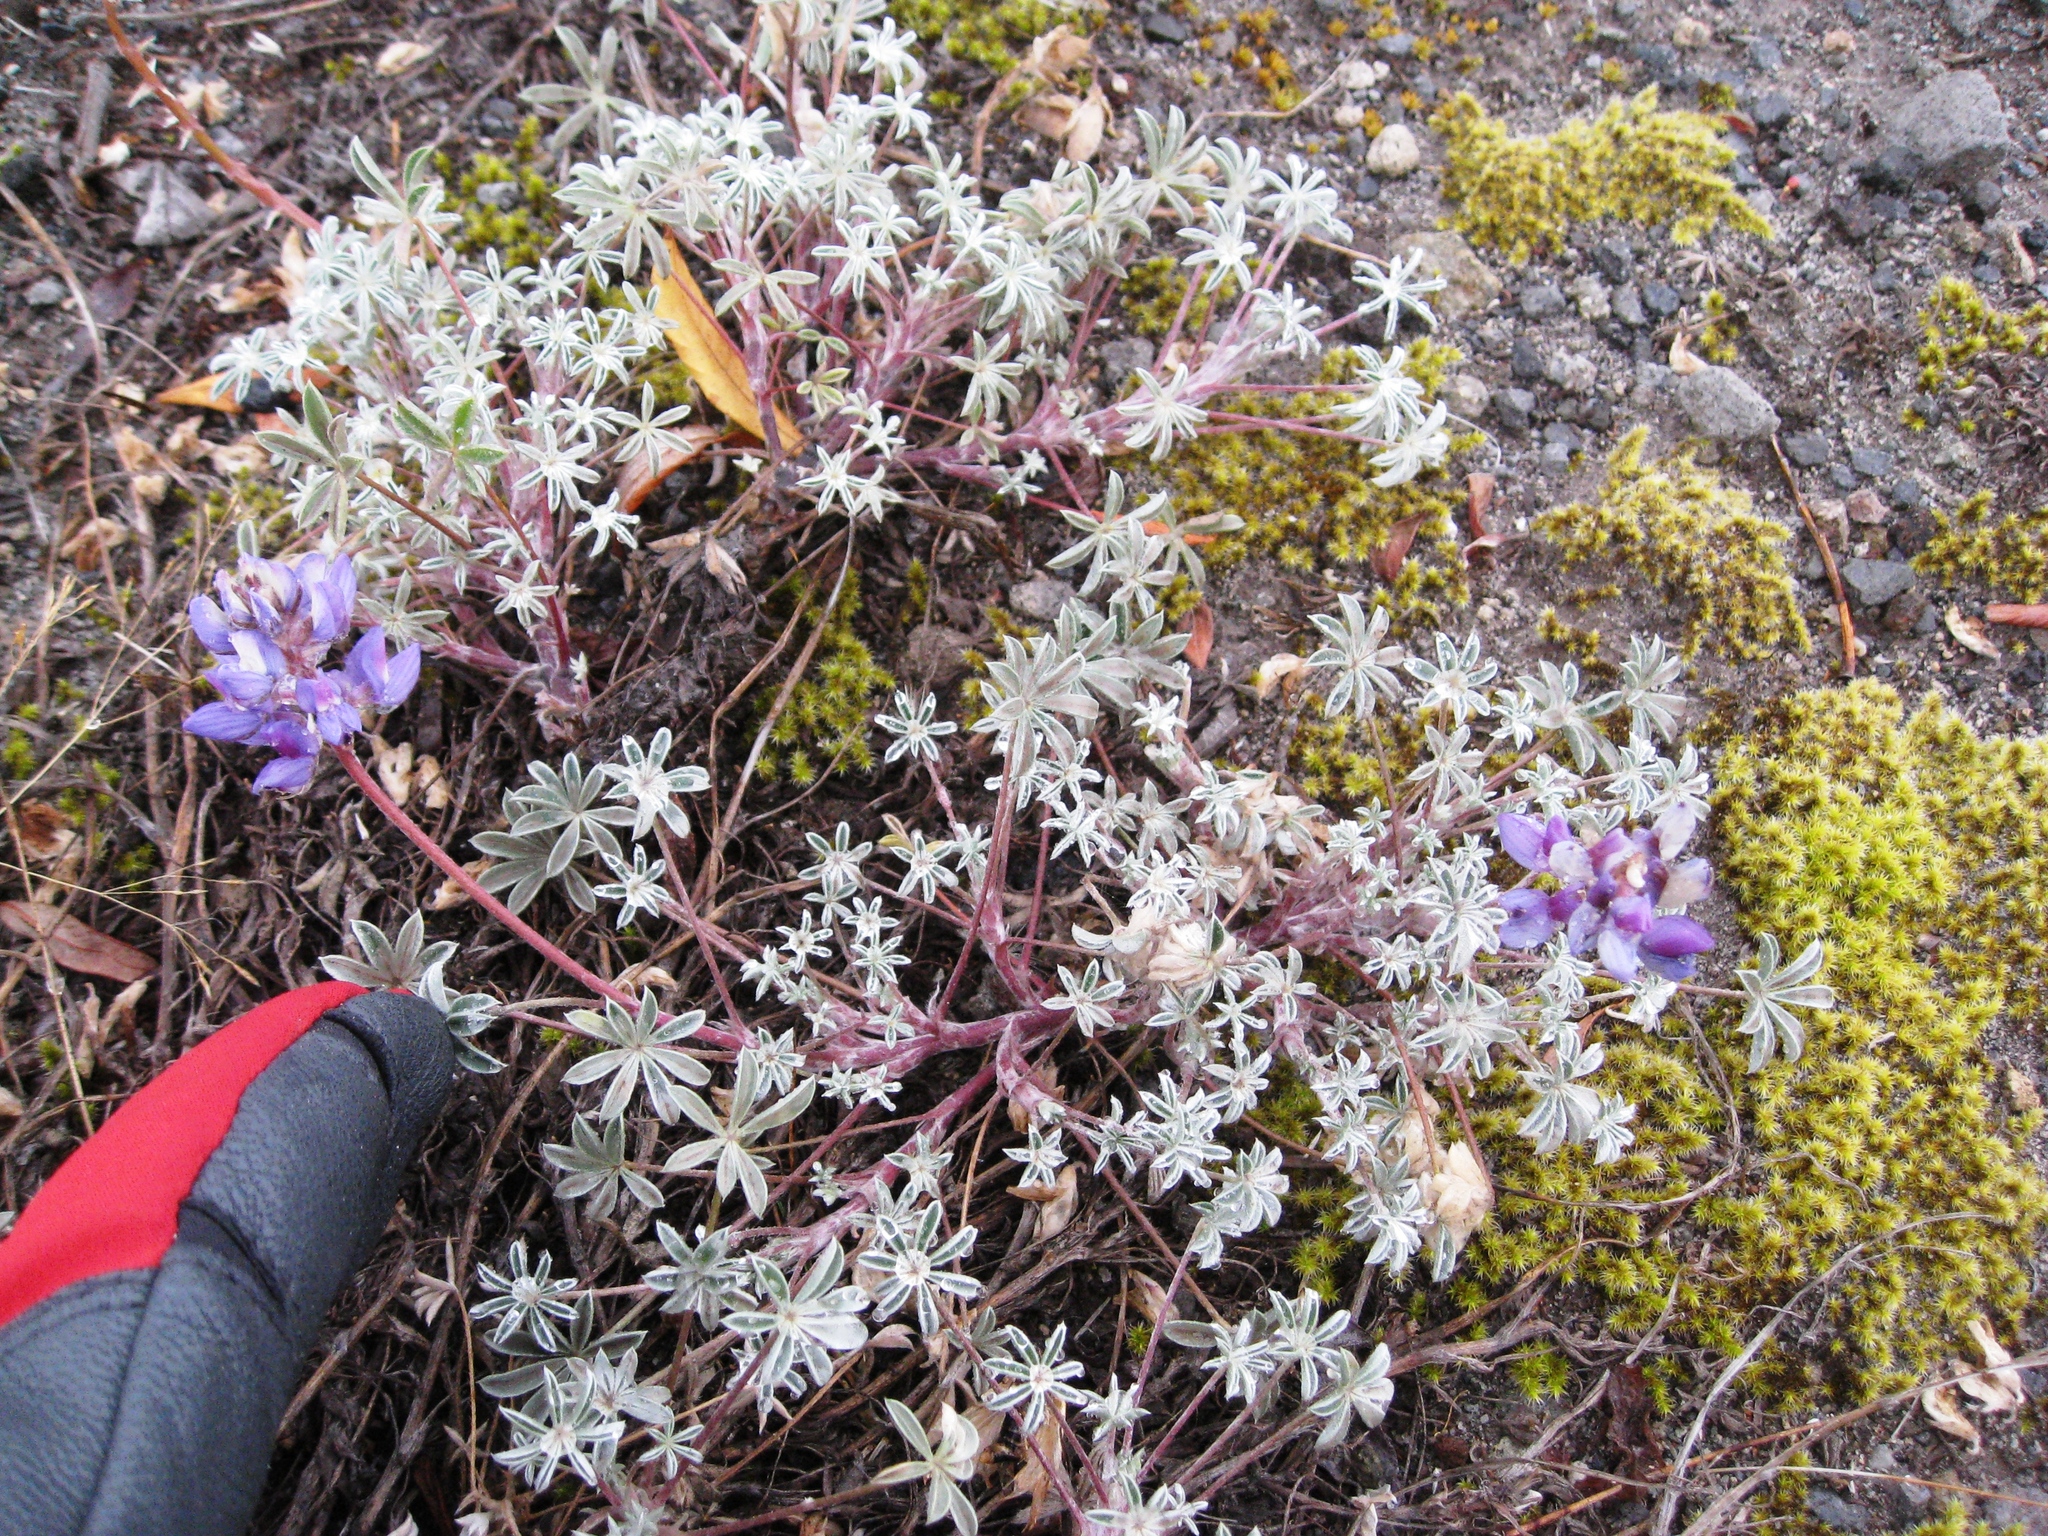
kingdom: Plantae
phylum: Tracheophyta
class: Magnoliopsida
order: Fabales
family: Fabaceae
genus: Lupinus
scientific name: Lupinus lepidus
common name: Prairie lupine
